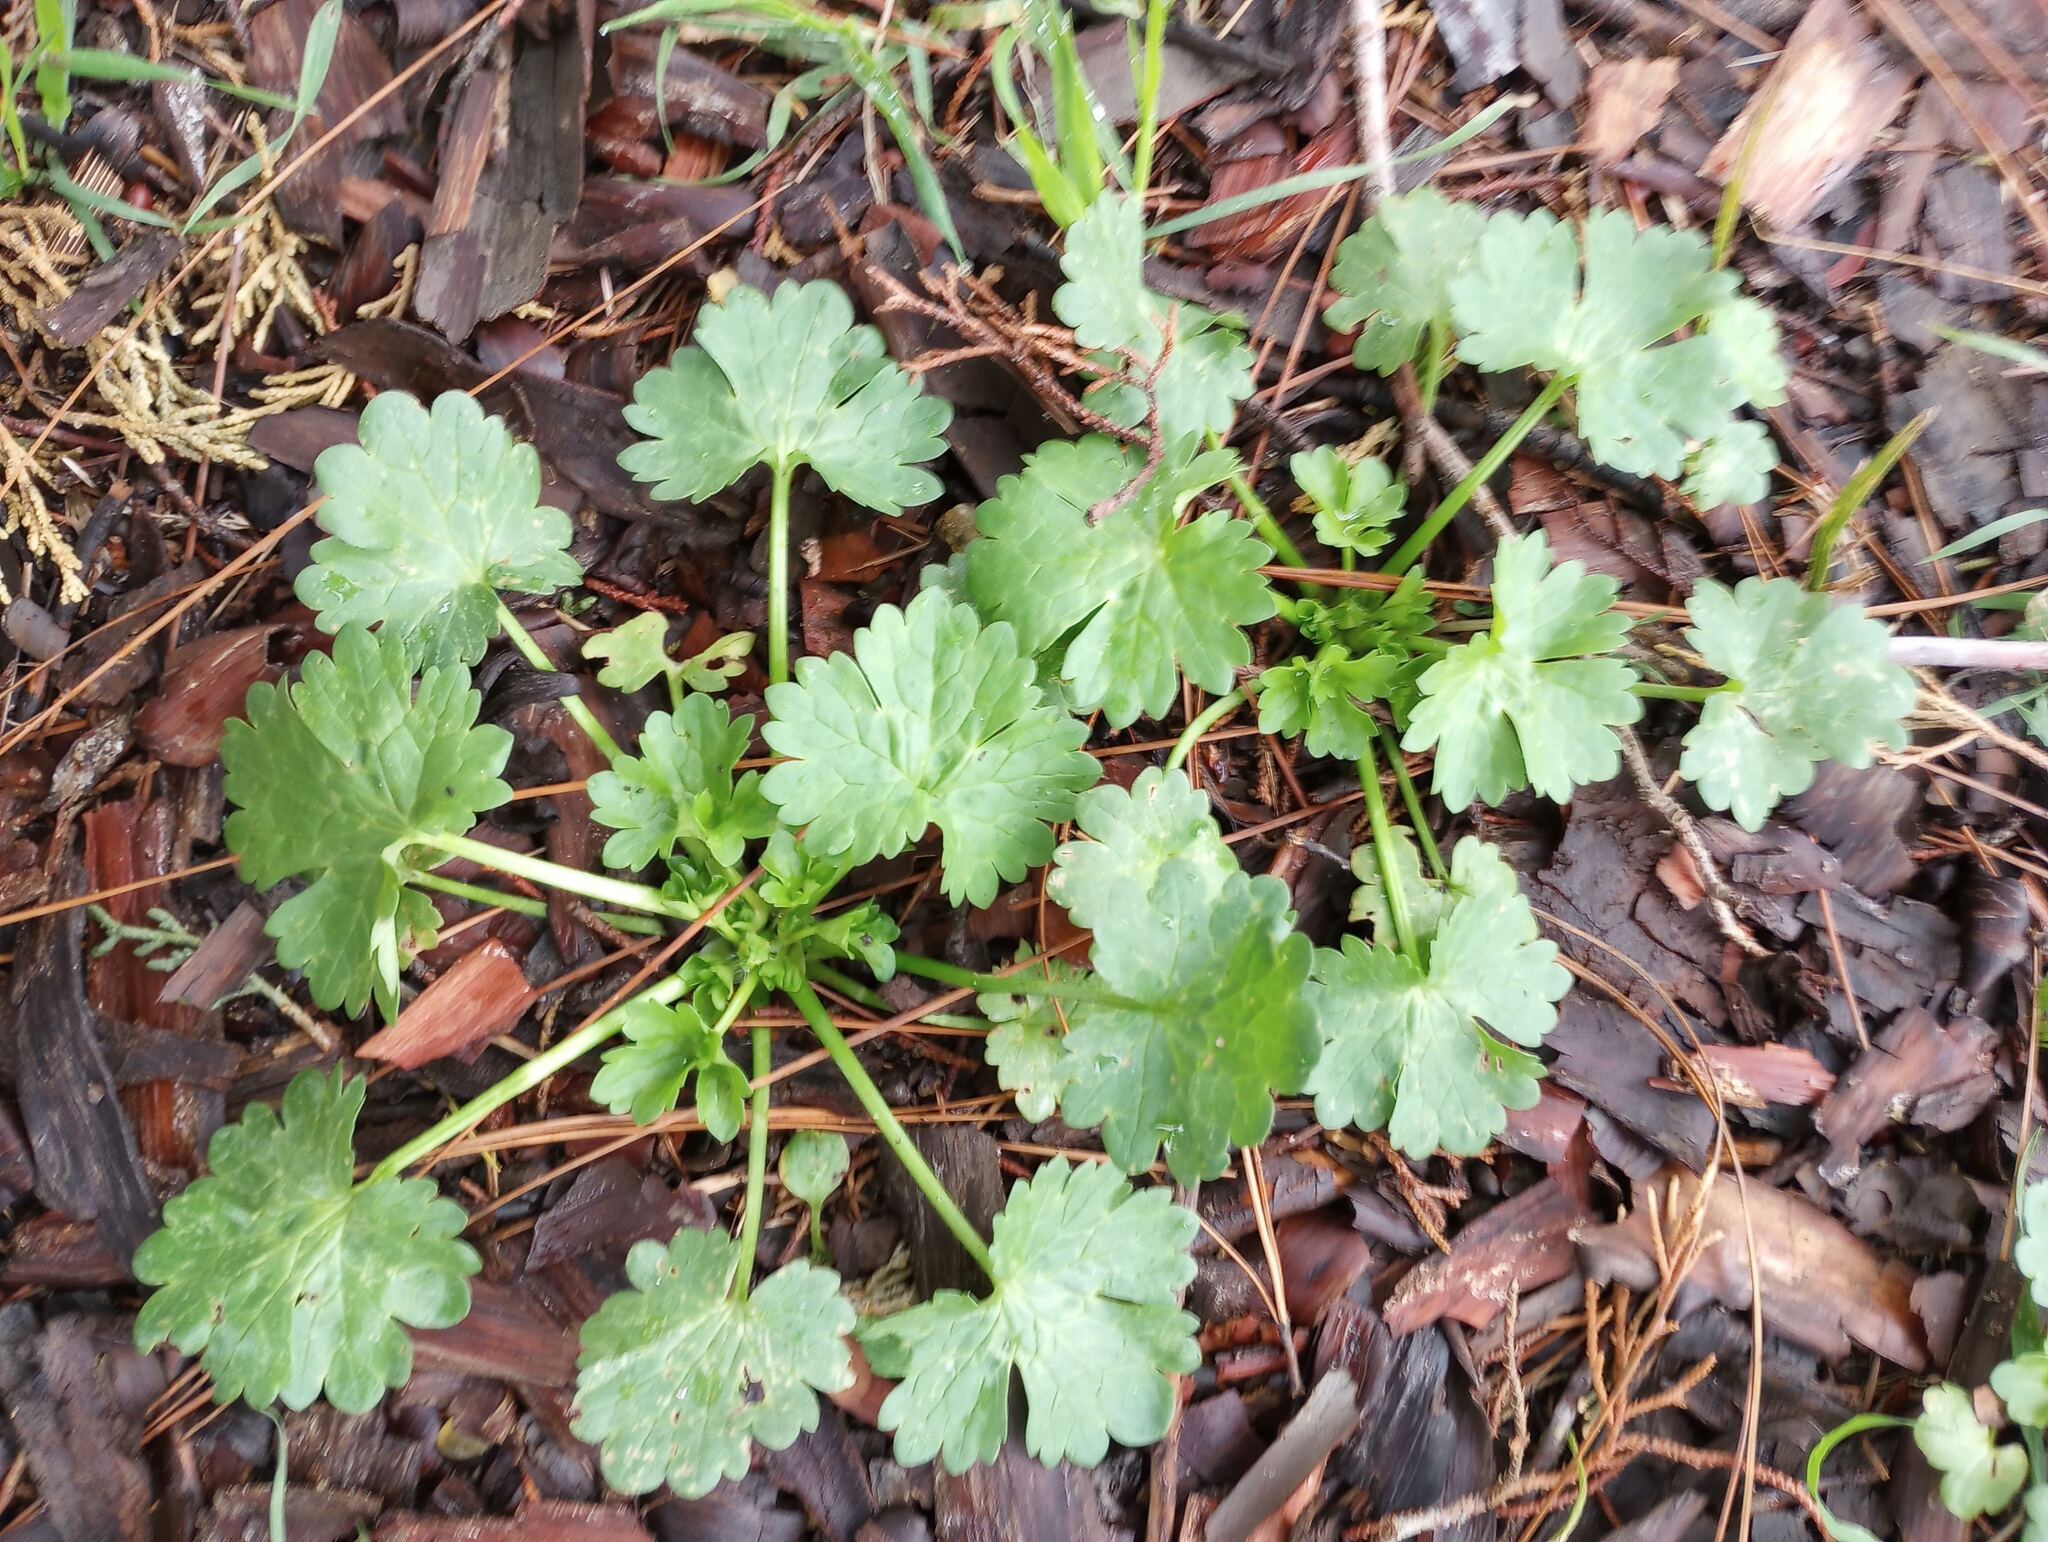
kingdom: Plantae
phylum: Tracheophyta
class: Magnoliopsida
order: Geraniales
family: Geraniaceae
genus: Geranium
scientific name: Geranium
